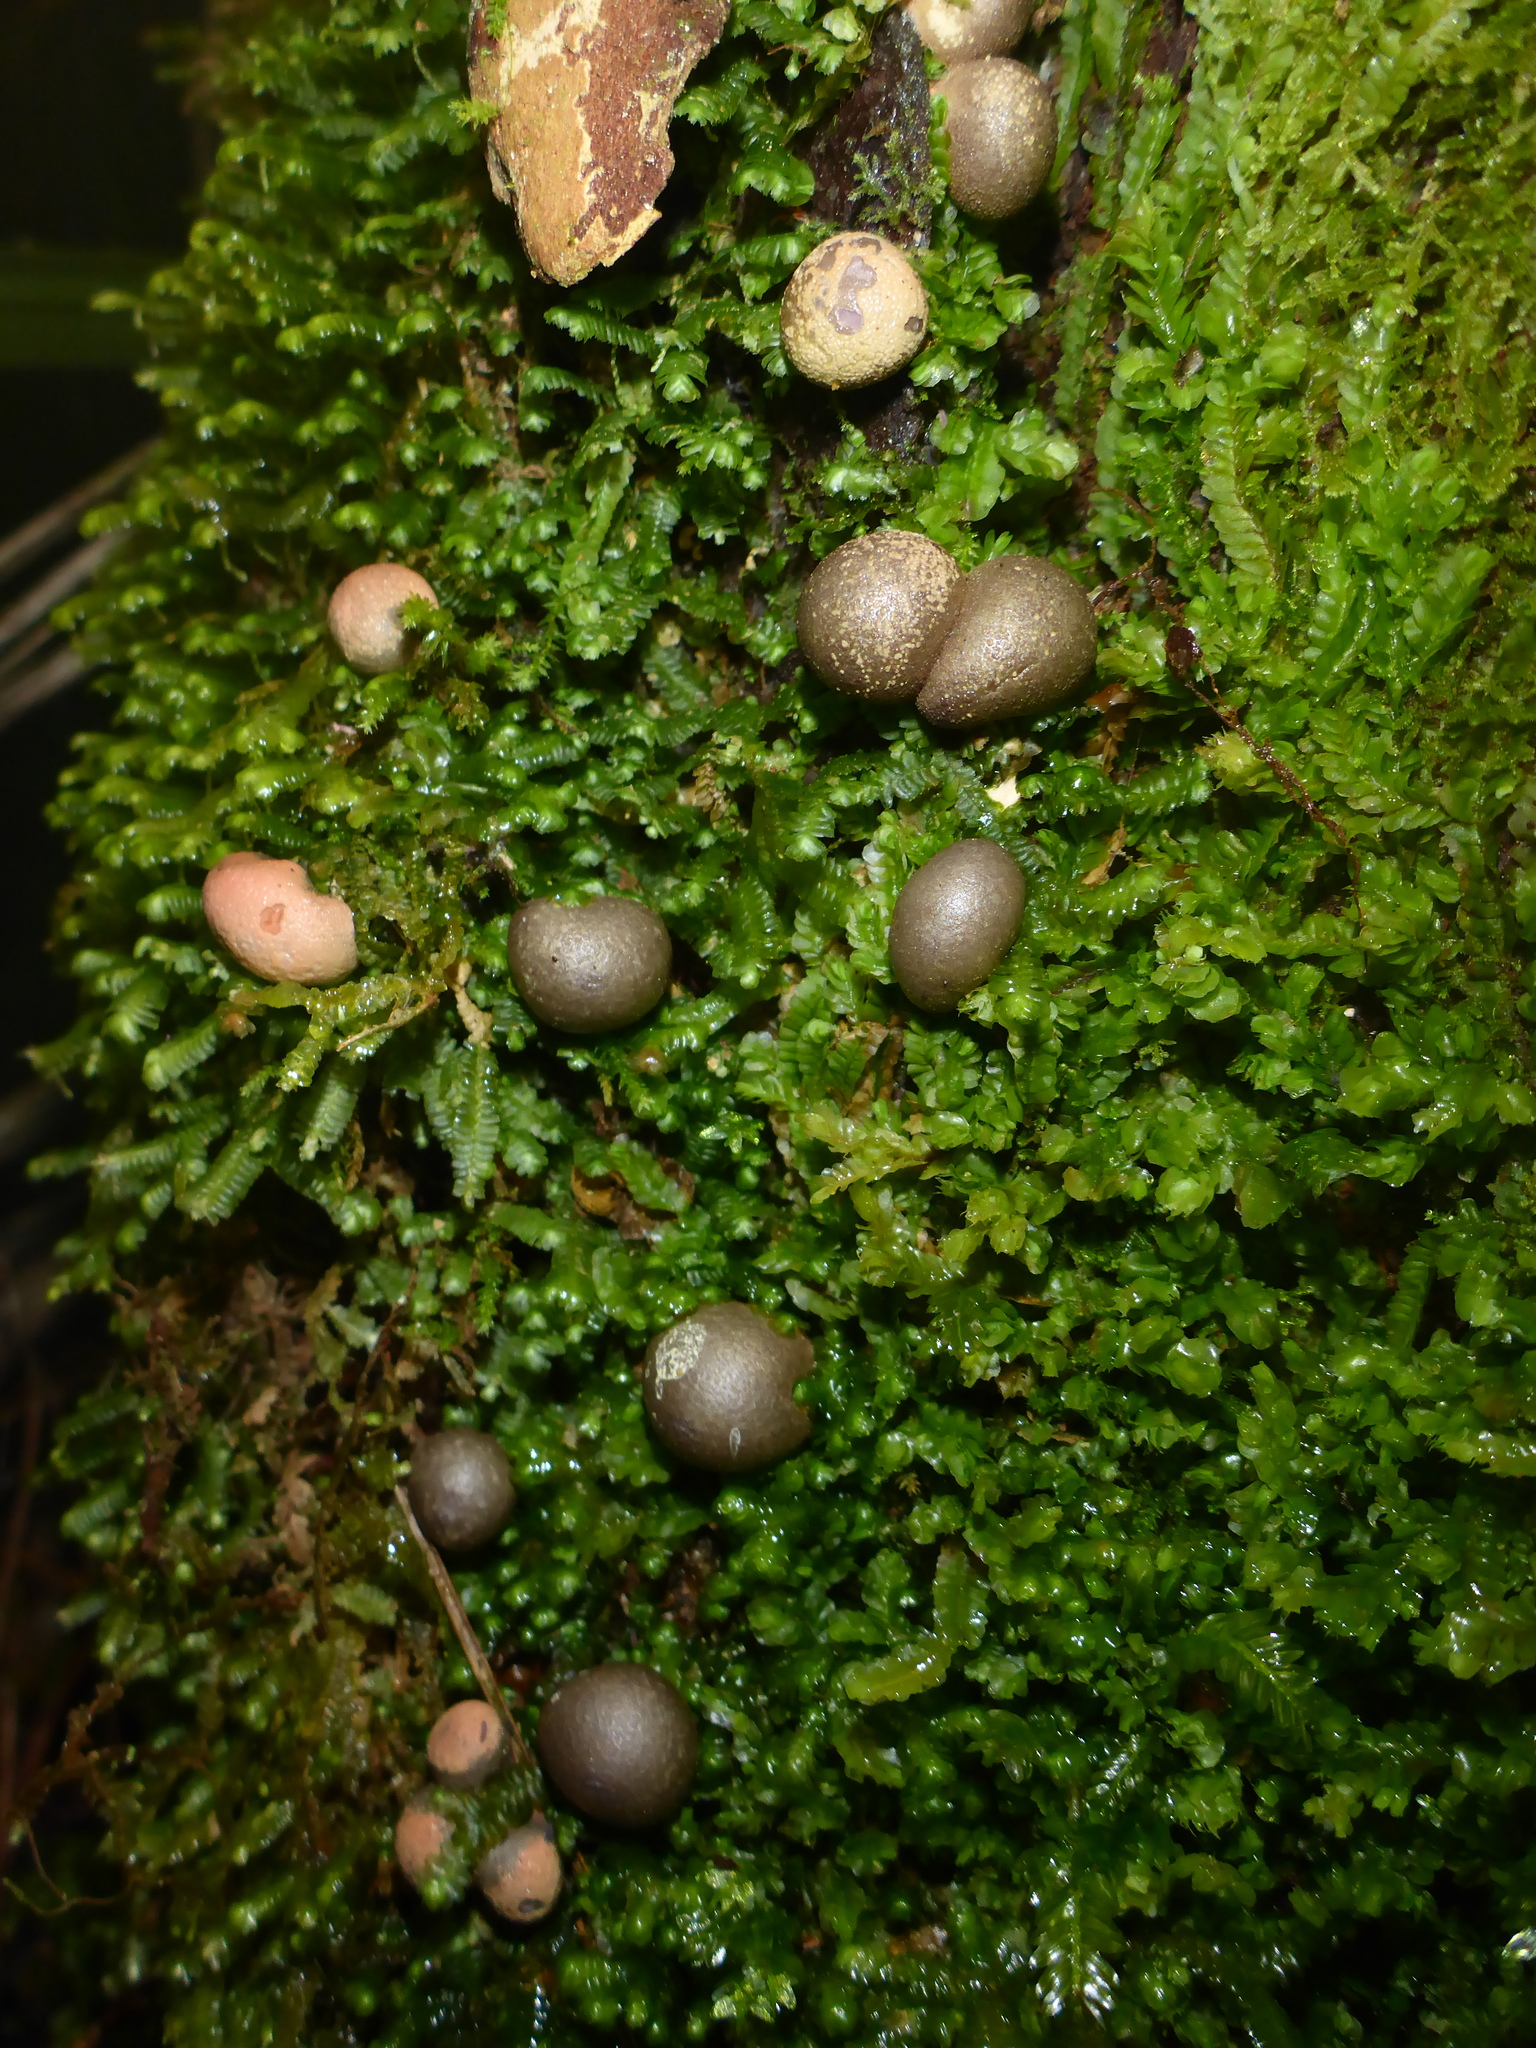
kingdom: Protozoa
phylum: Mycetozoa
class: Myxomycetes
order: Cribrariales
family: Tubiferaceae
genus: Lycogala
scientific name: Lycogala epidendrum
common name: Wolf's milk
